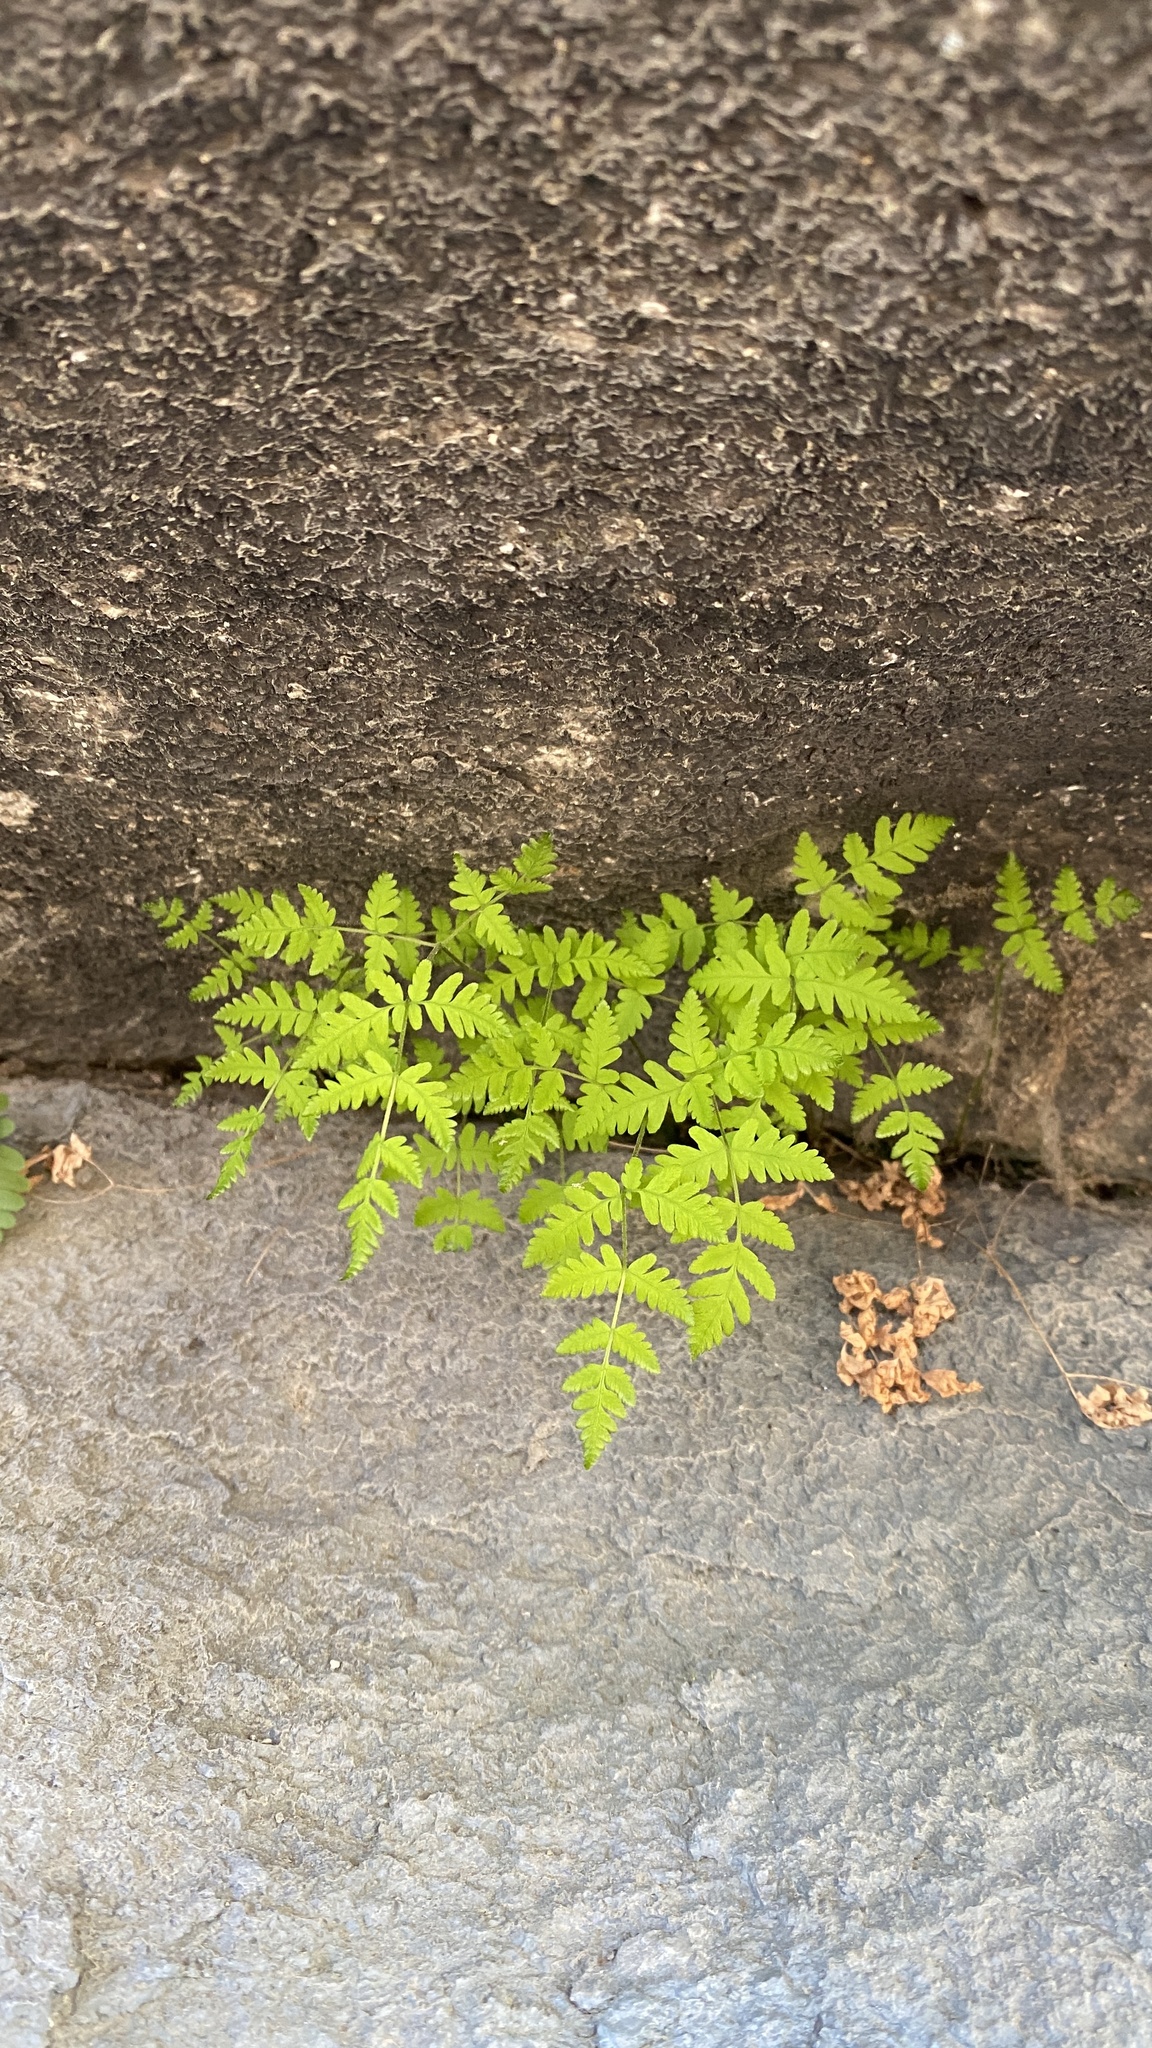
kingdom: Plantae
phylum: Tracheophyta
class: Polypodiopsida
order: Polypodiales
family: Cystopteridaceae
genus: Gymnocarpium
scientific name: Gymnocarpium dryopteris
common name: Oak fern
